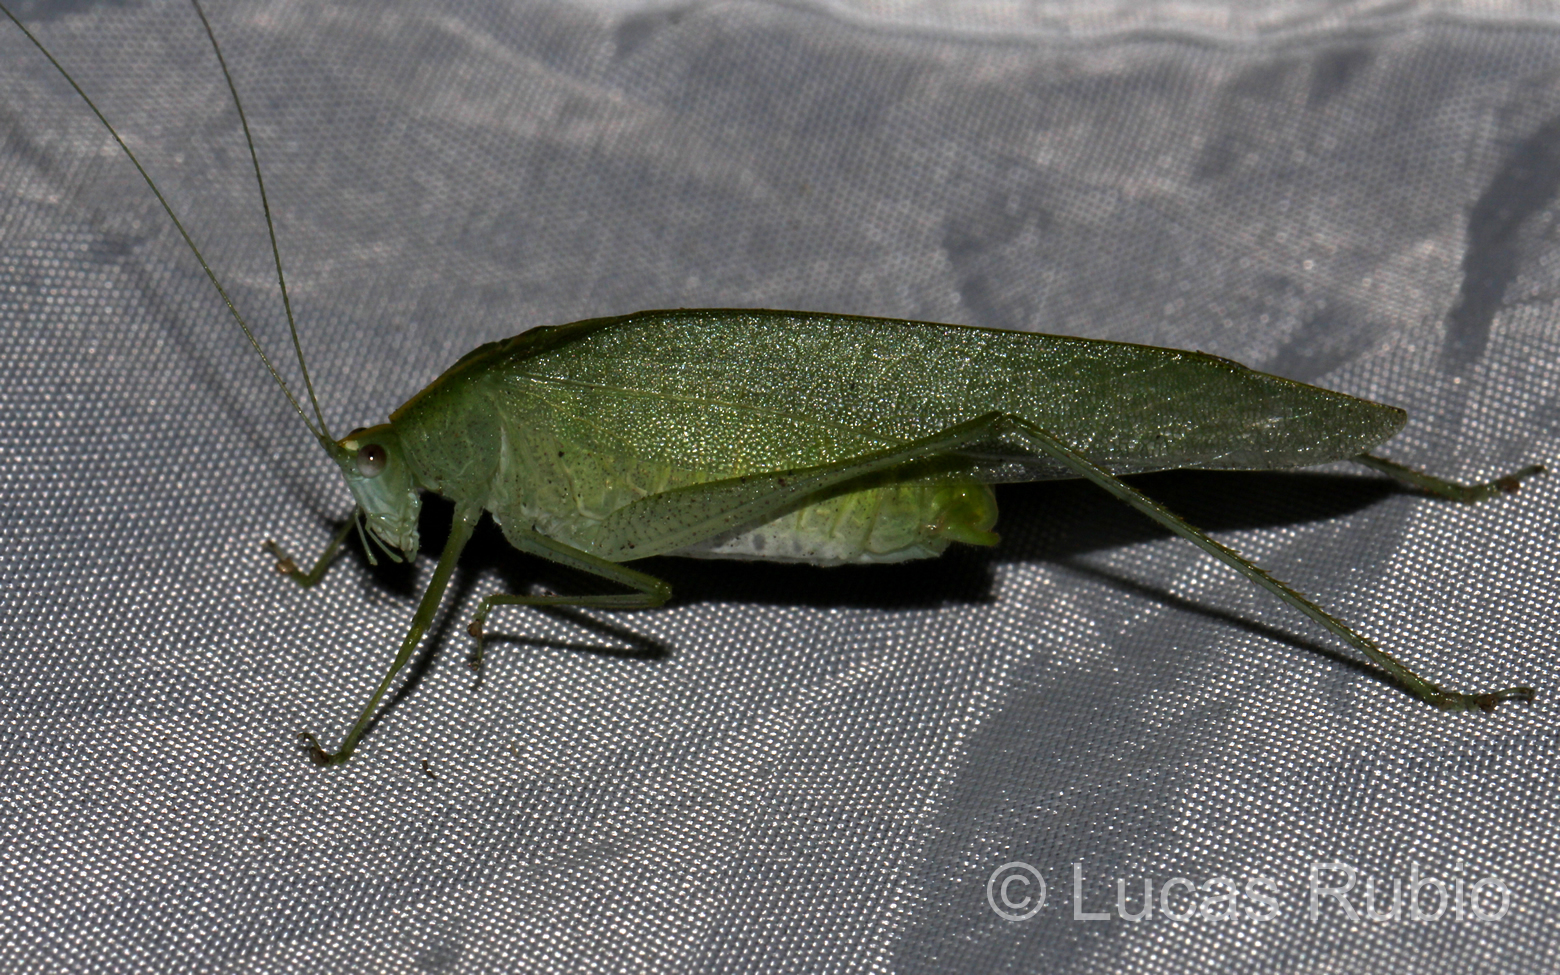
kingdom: Animalia
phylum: Arthropoda
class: Insecta
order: Orthoptera
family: Tettigoniidae
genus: Grammadera
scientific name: Grammadera clara
